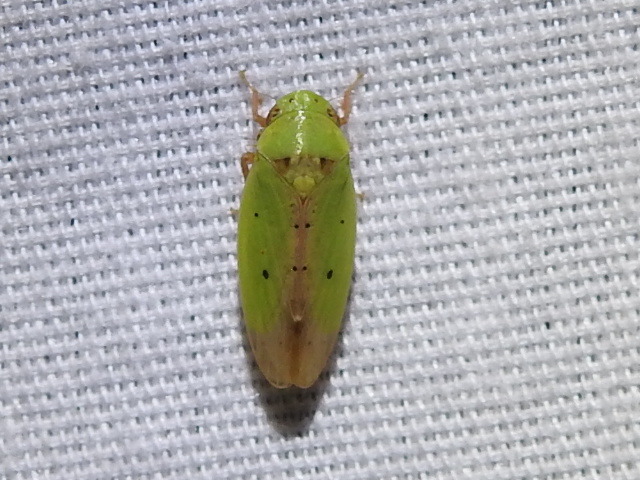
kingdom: Animalia
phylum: Arthropoda
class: Insecta
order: Hemiptera
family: Cicadellidae
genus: Ponana
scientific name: Ponana
